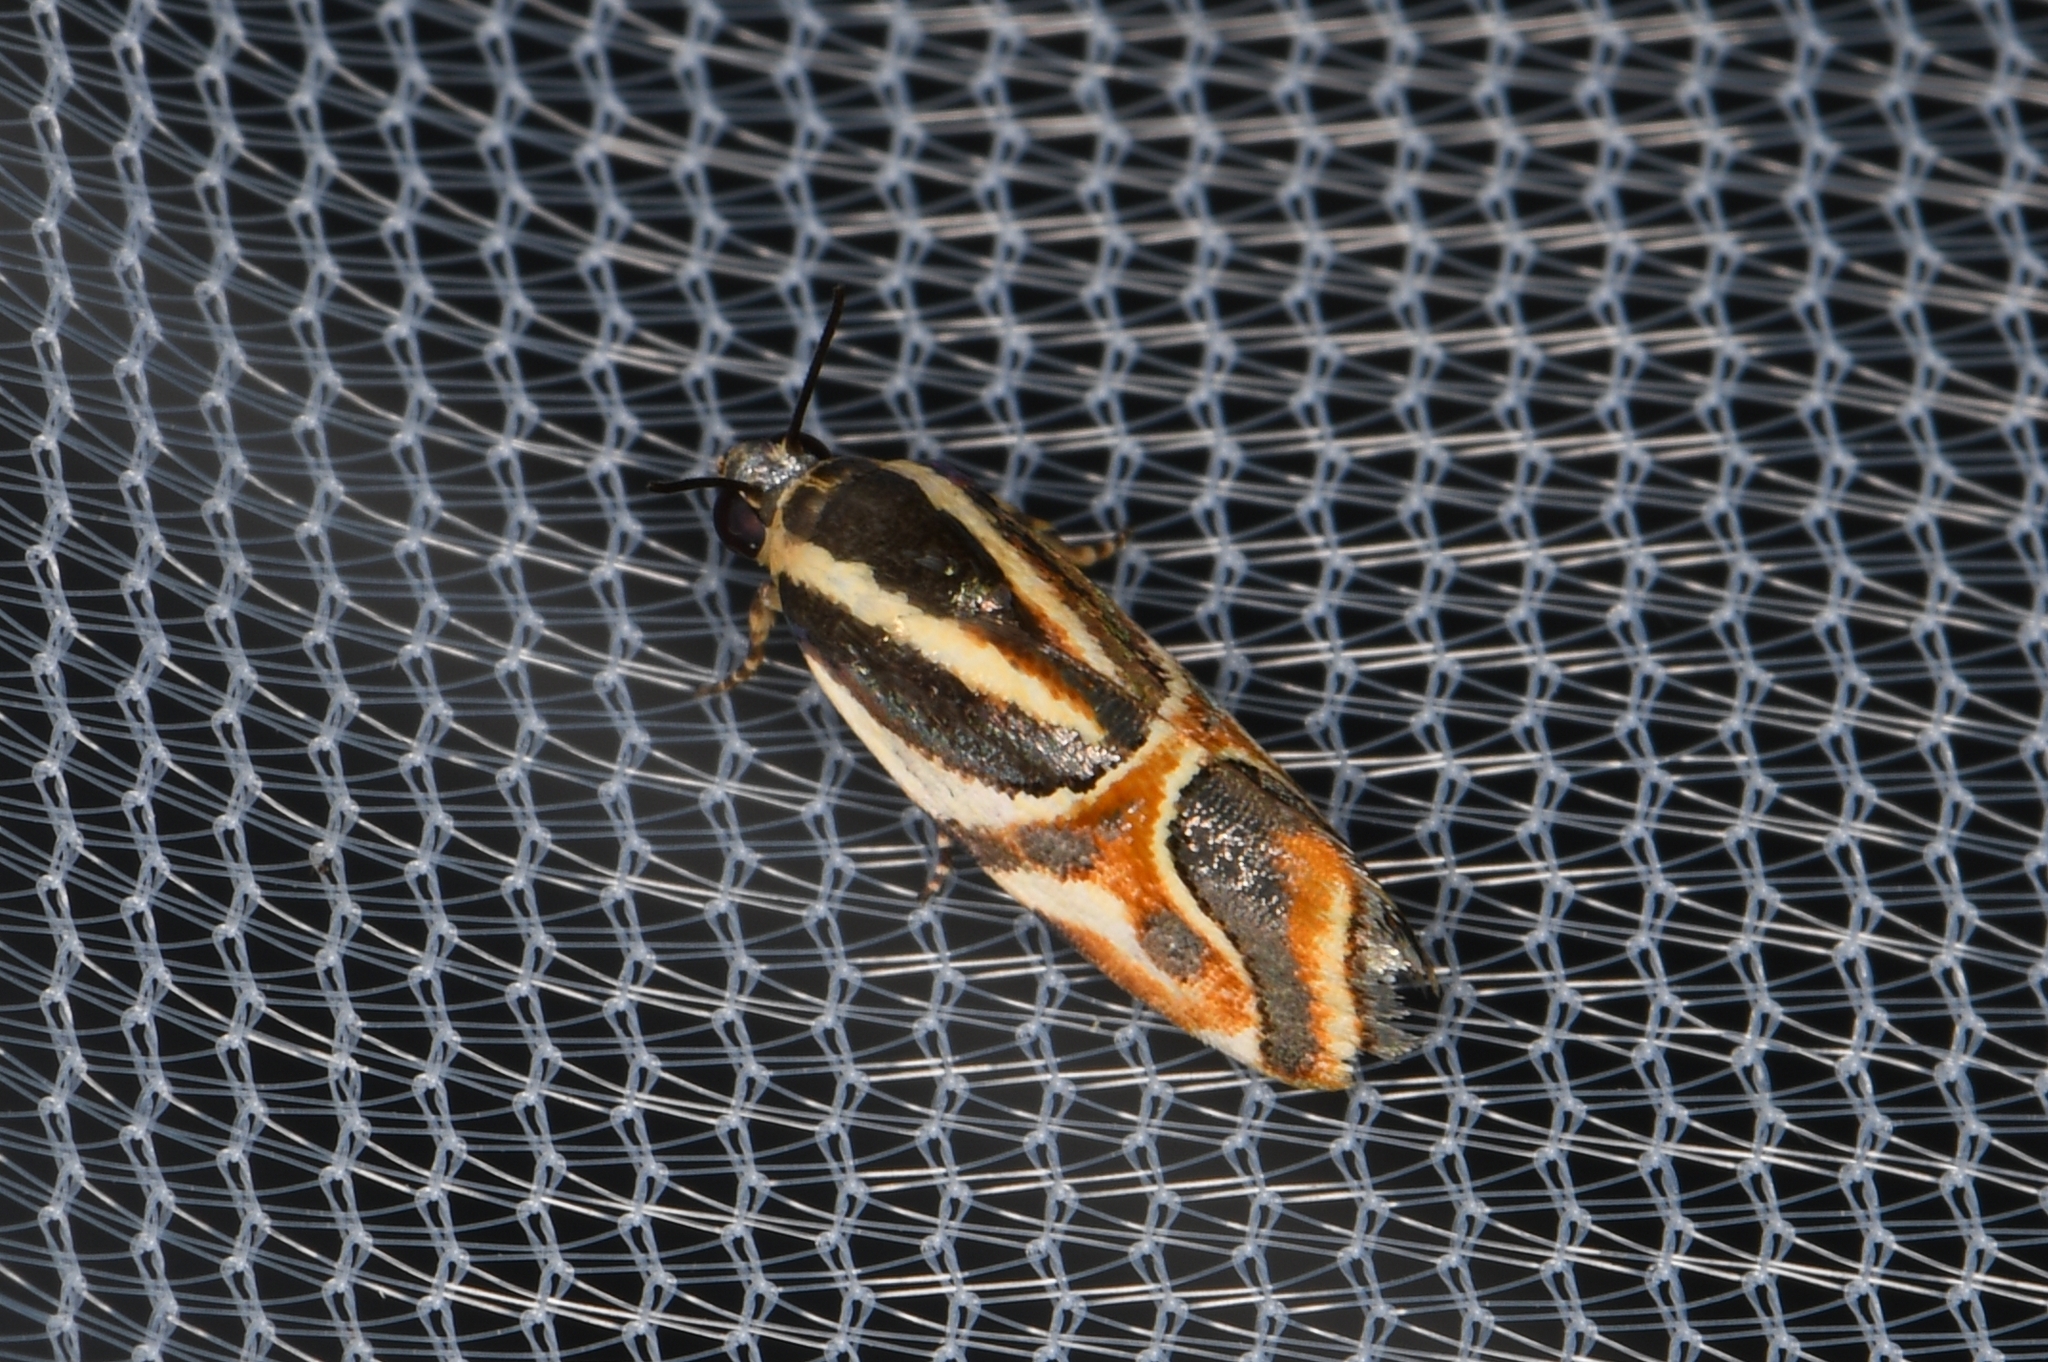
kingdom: Animalia
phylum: Arthropoda
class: Insecta
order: Lepidoptera
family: Noctuidae
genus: Spragueia
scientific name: Spragueia magnifica
